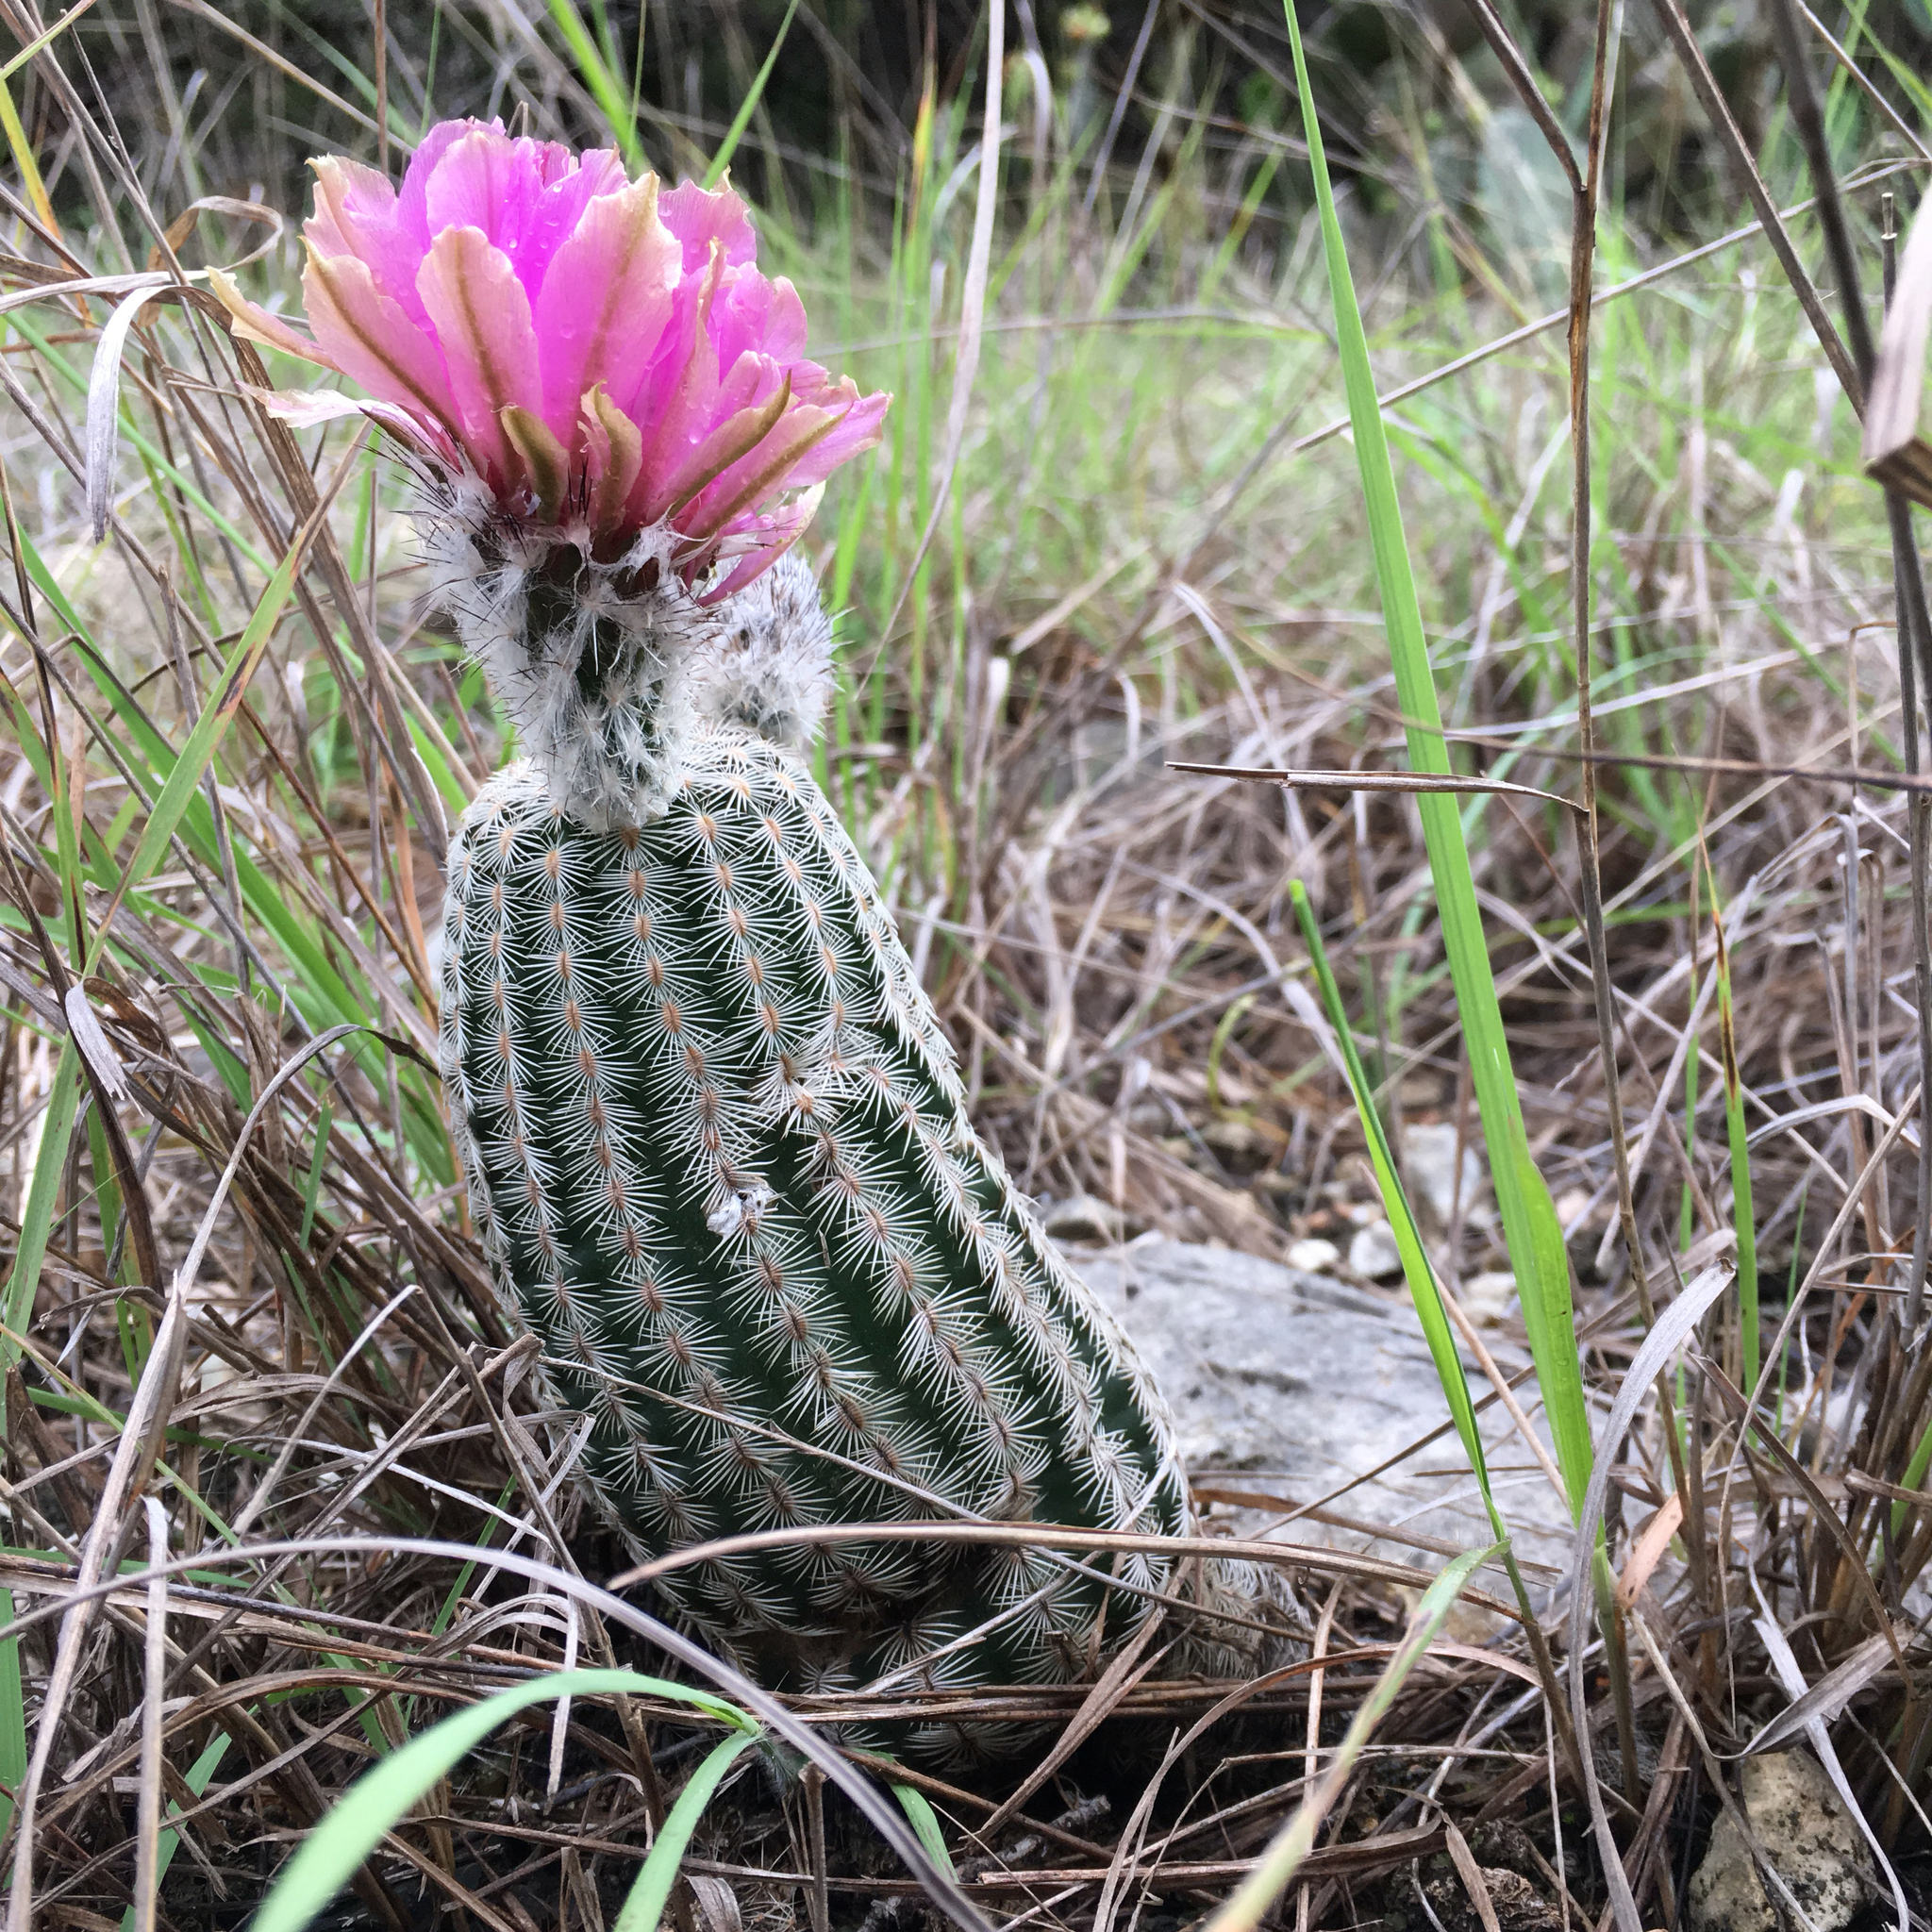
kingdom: Plantae
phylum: Tracheophyta
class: Magnoliopsida
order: Caryophyllales
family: Cactaceae
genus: Echinocereus
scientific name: Echinocereus reichenbachii
